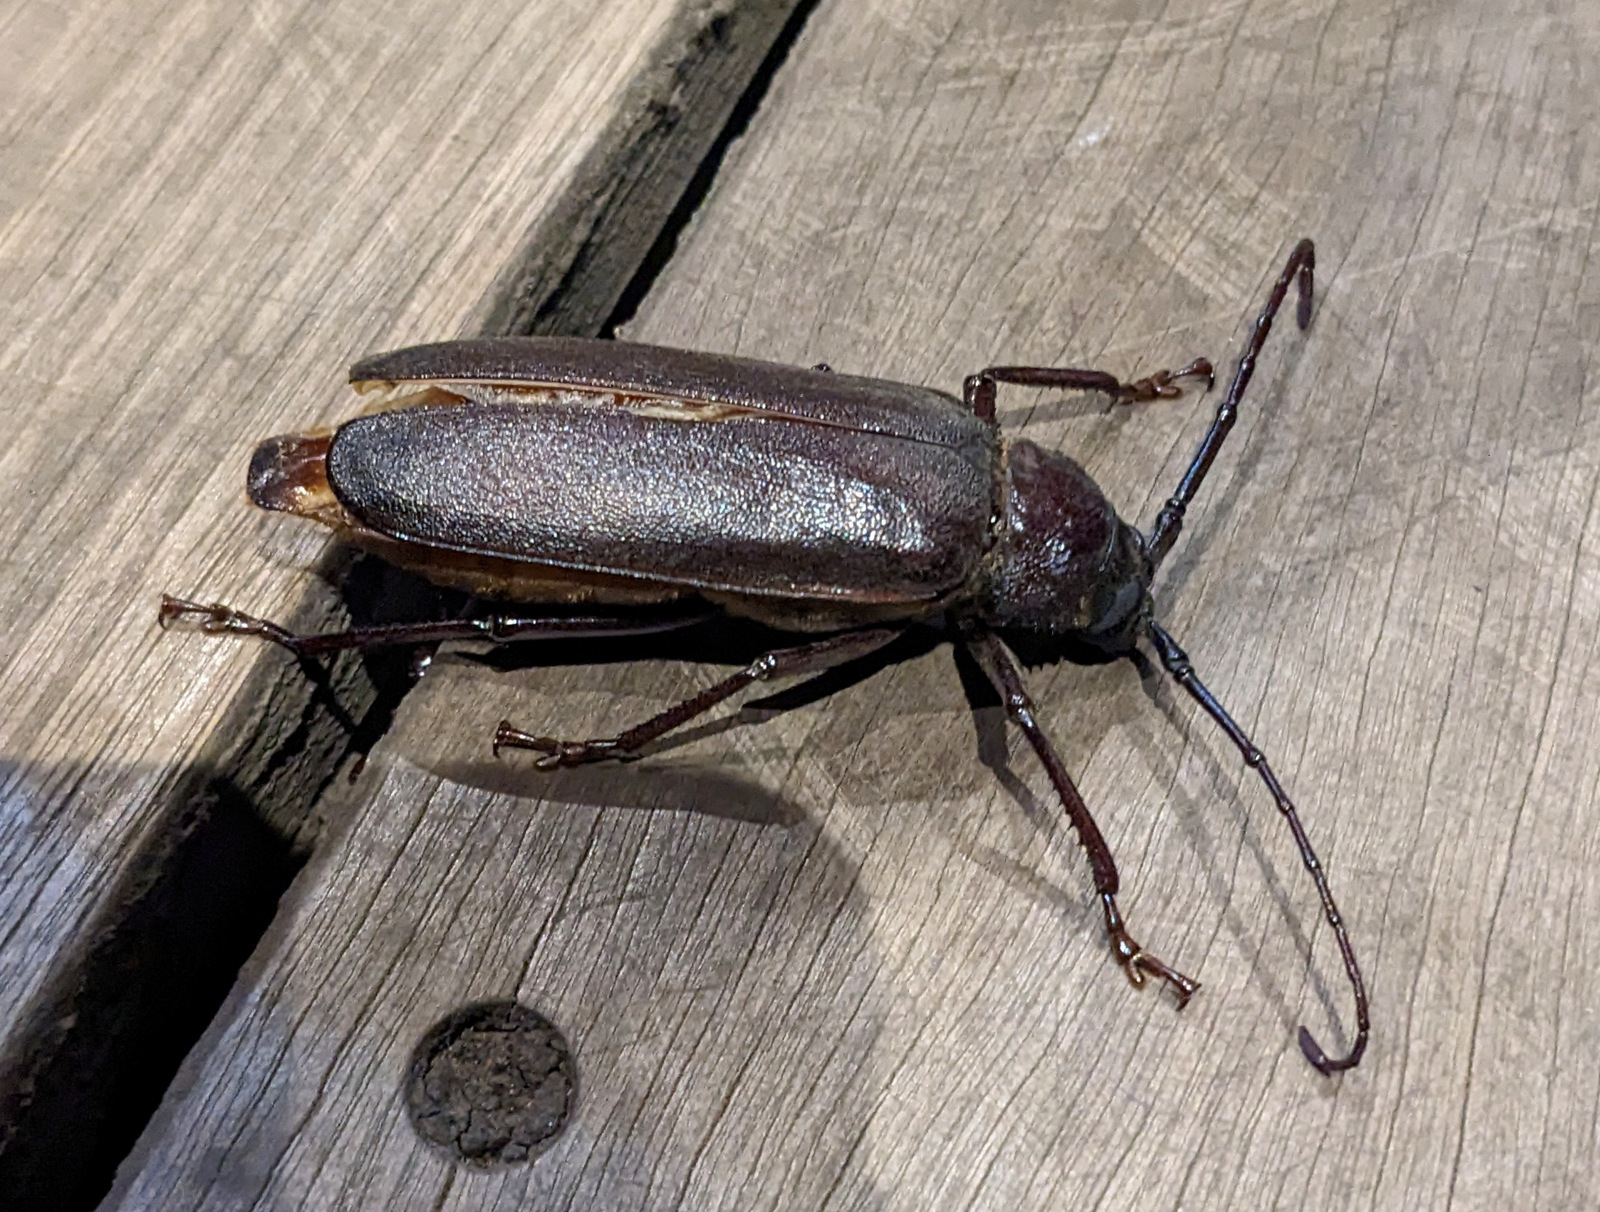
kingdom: Animalia
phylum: Arthropoda
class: Insecta
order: Coleoptera
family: Cerambycidae
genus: Macrotoma
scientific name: Macrotoma palmata
